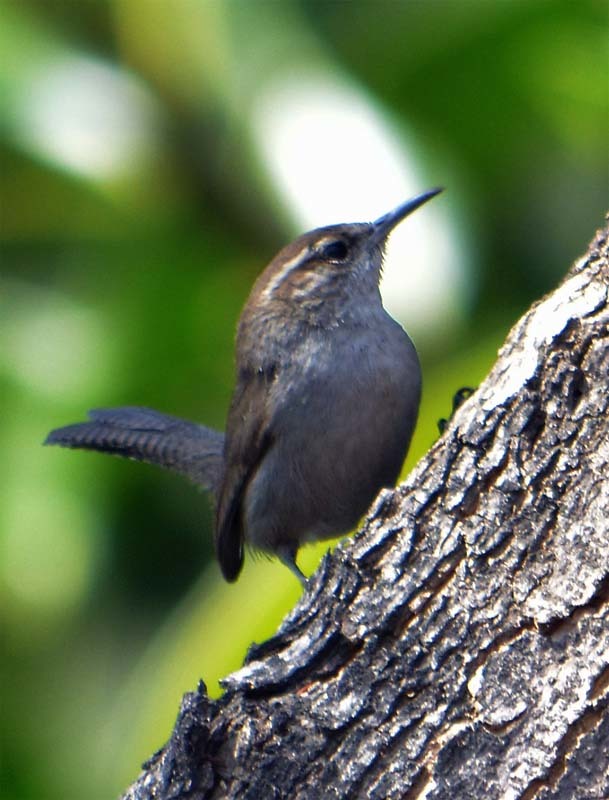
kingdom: Animalia
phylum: Chordata
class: Aves
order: Passeriformes
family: Troglodytidae
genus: Thryomanes
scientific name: Thryomanes bewickii
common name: Bewick's wren
